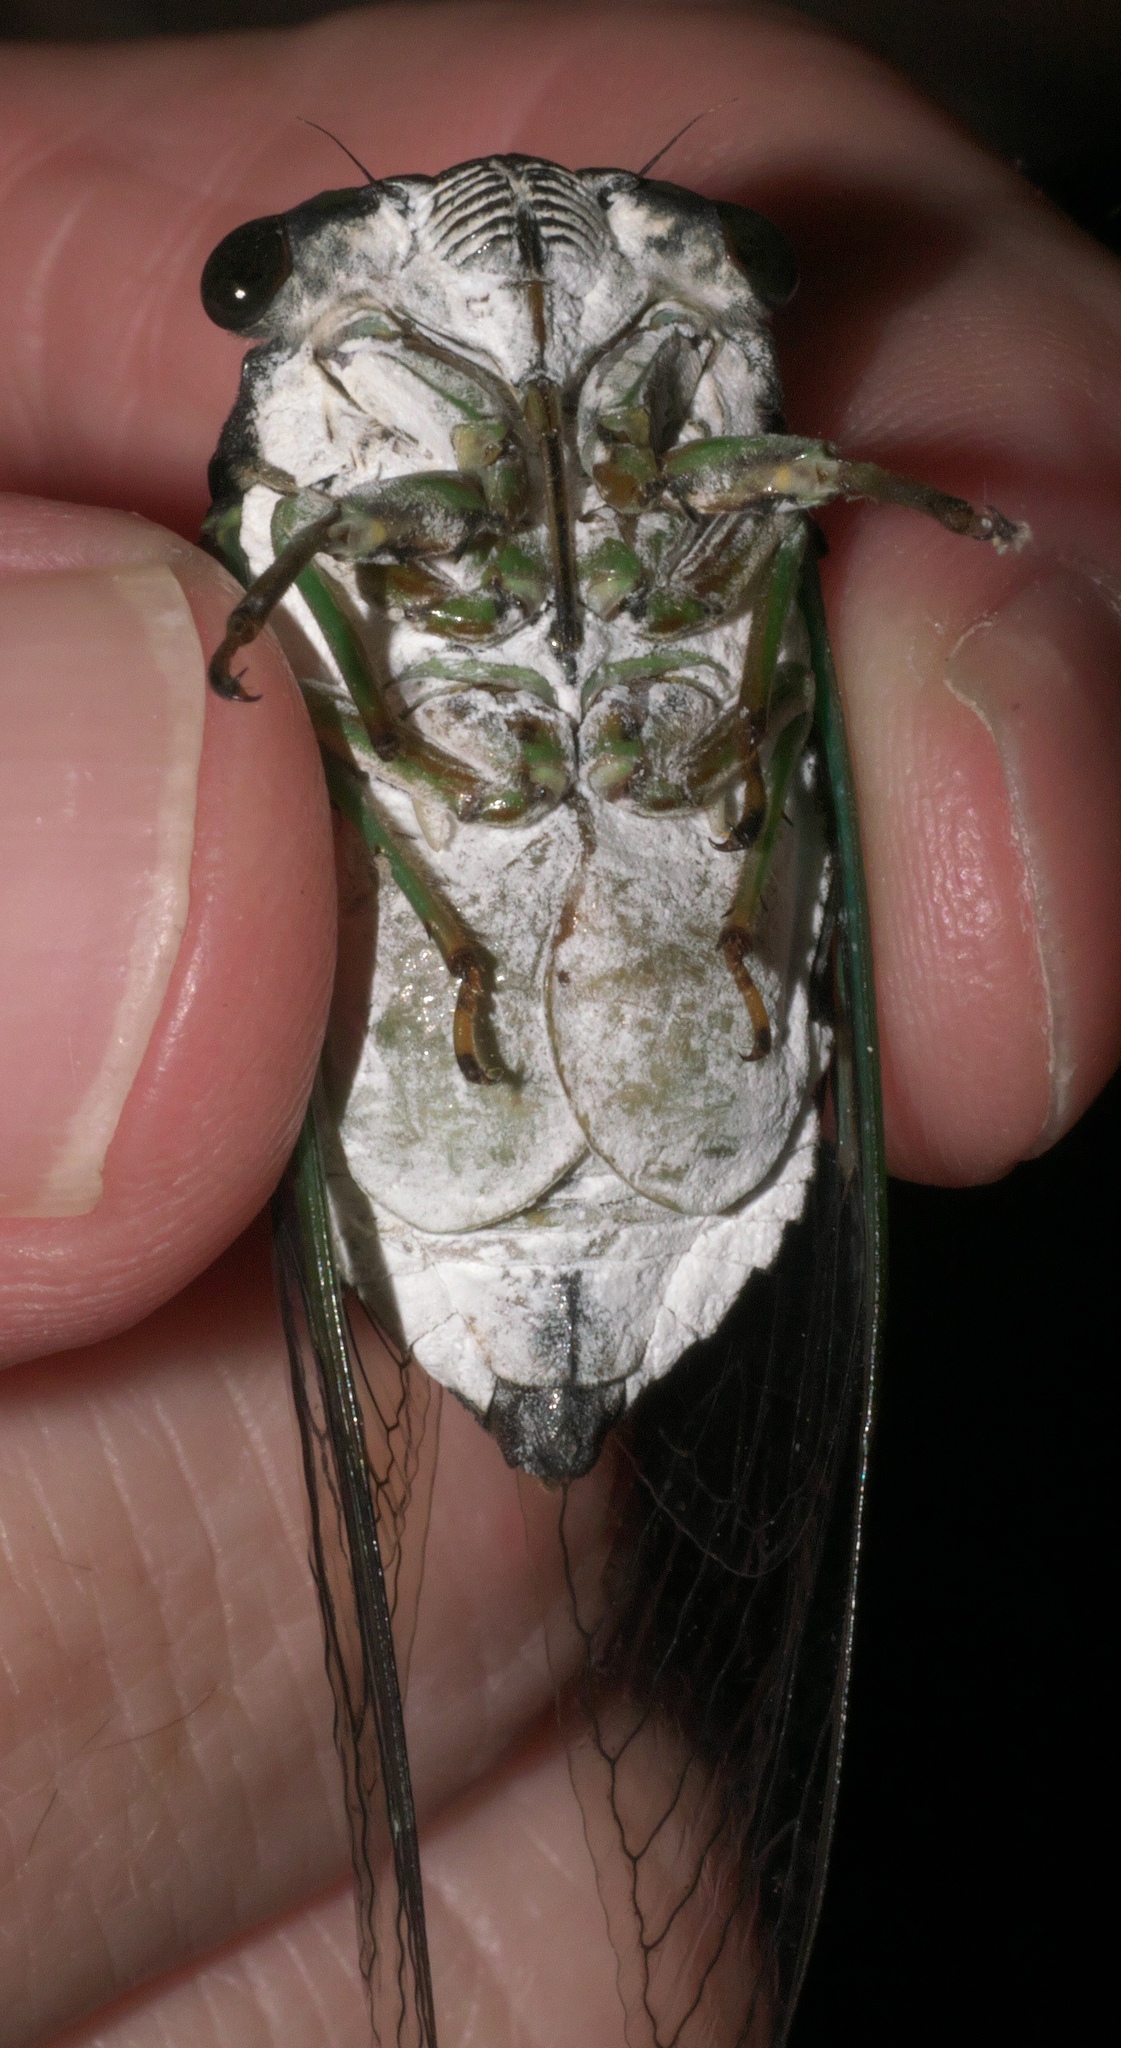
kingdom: Animalia
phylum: Arthropoda
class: Insecta
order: Hemiptera
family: Cicadidae
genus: Neotibicen
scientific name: Neotibicen tibicen
